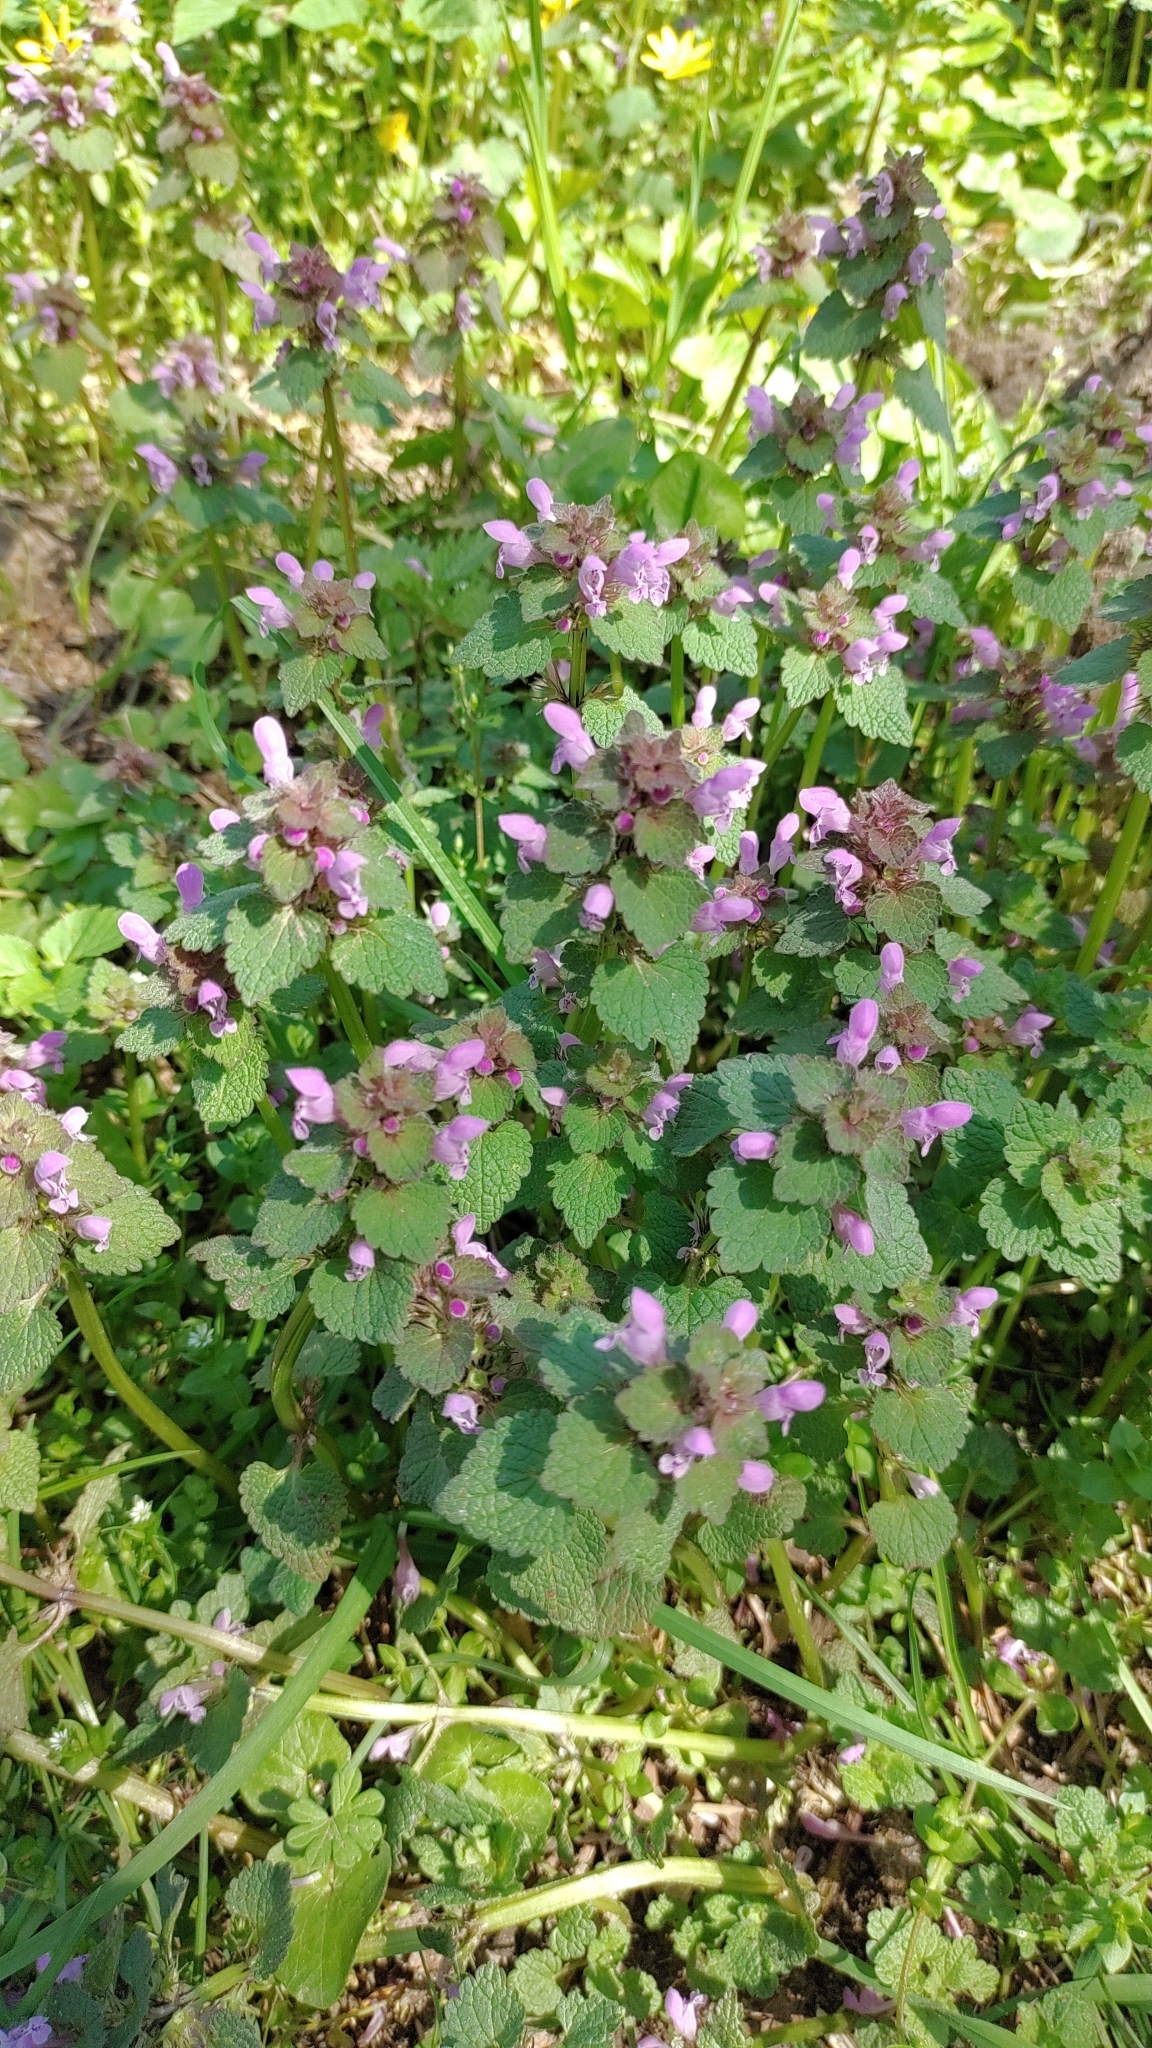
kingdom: Plantae
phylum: Tracheophyta
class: Magnoliopsida
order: Lamiales
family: Lamiaceae
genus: Lamium
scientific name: Lamium purpureum
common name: Red dead-nettle
